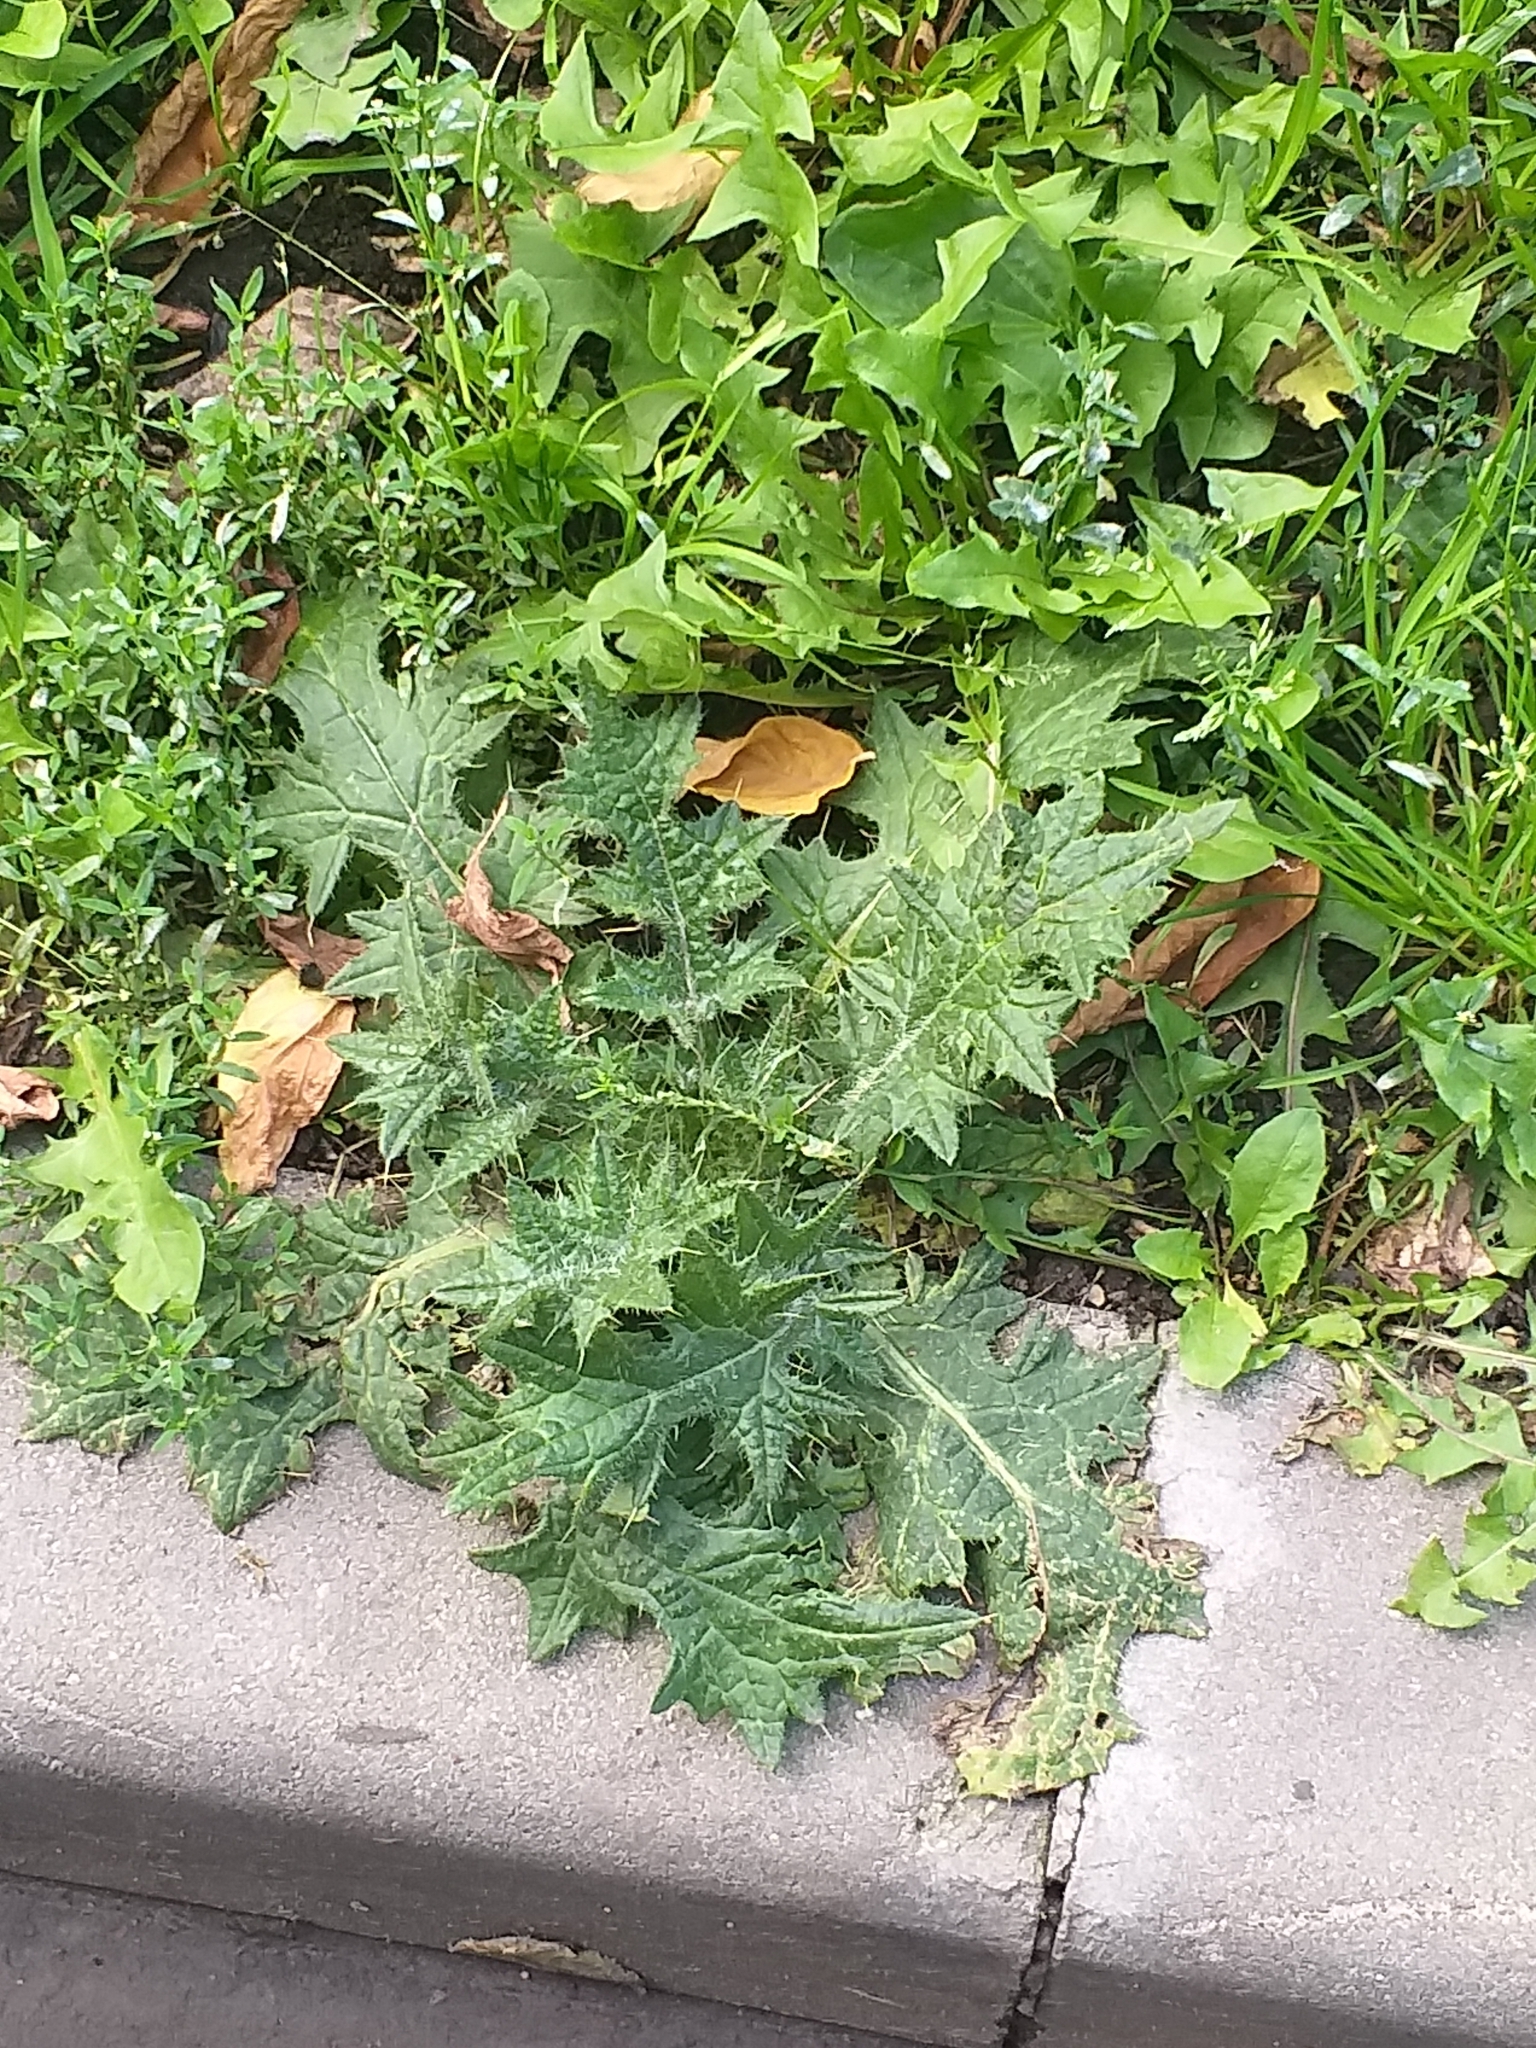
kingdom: Plantae
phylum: Tracheophyta
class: Magnoliopsida
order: Asterales
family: Asteraceae
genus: Cirsium
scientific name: Cirsium vulgare
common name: Bull thistle
